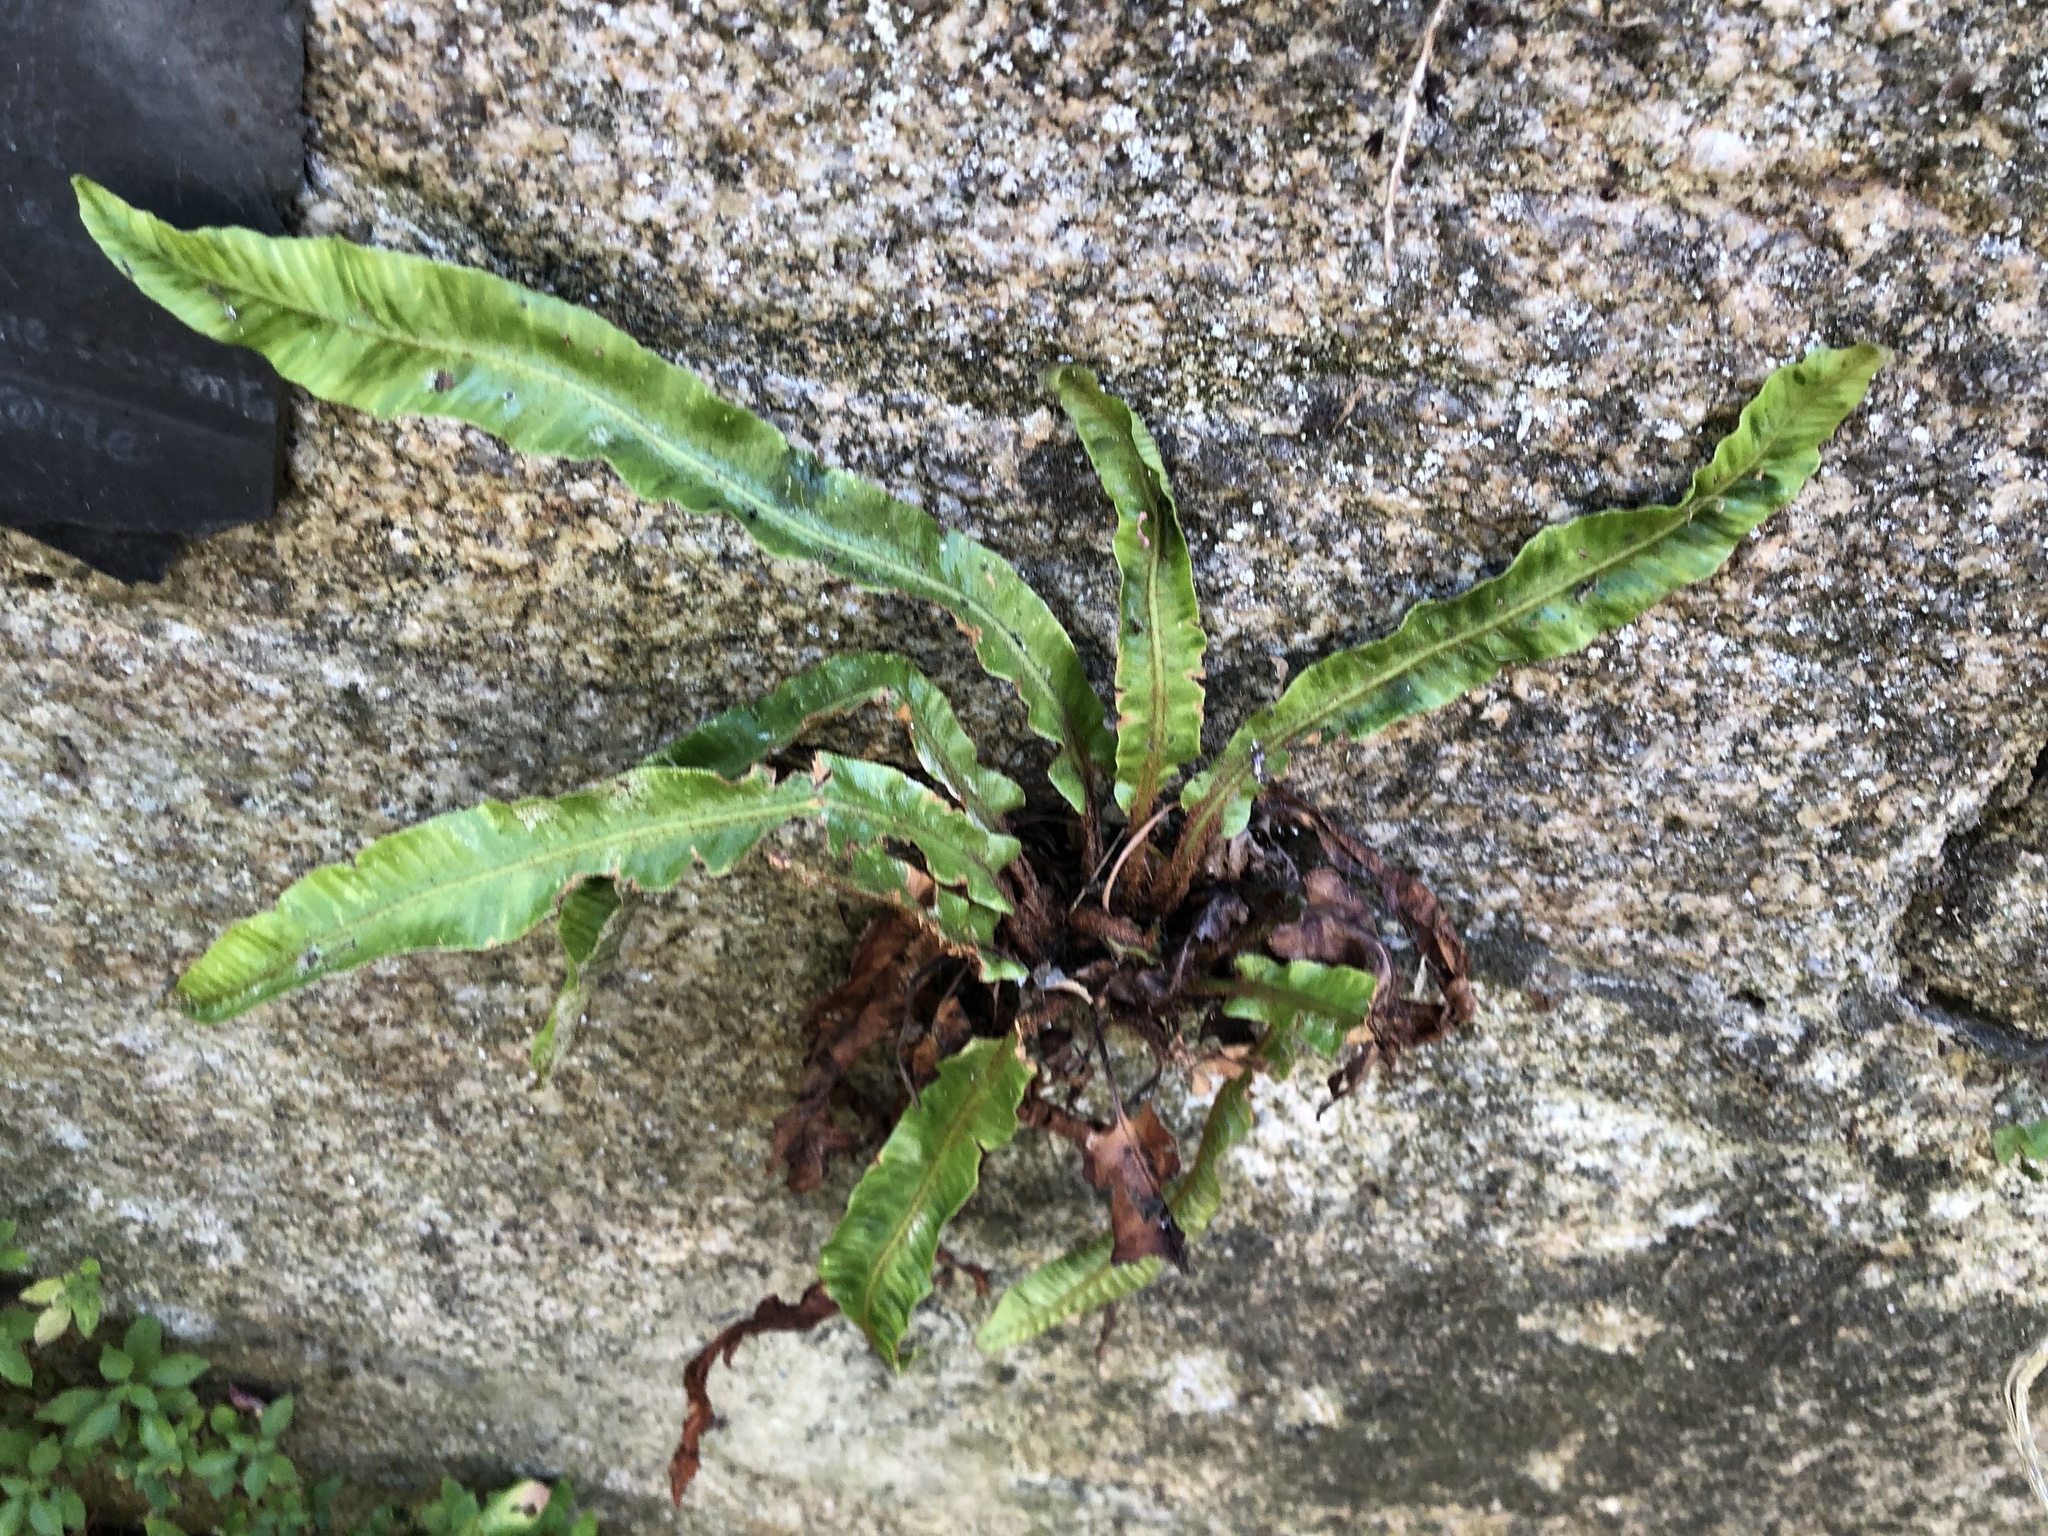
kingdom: Plantae
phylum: Tracheophyta
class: Polypodiopsida
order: Polypodiales
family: Aspleniaceae
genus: Asplenium
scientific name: Asplenium scolopendrium
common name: Hart's-tongue fern
